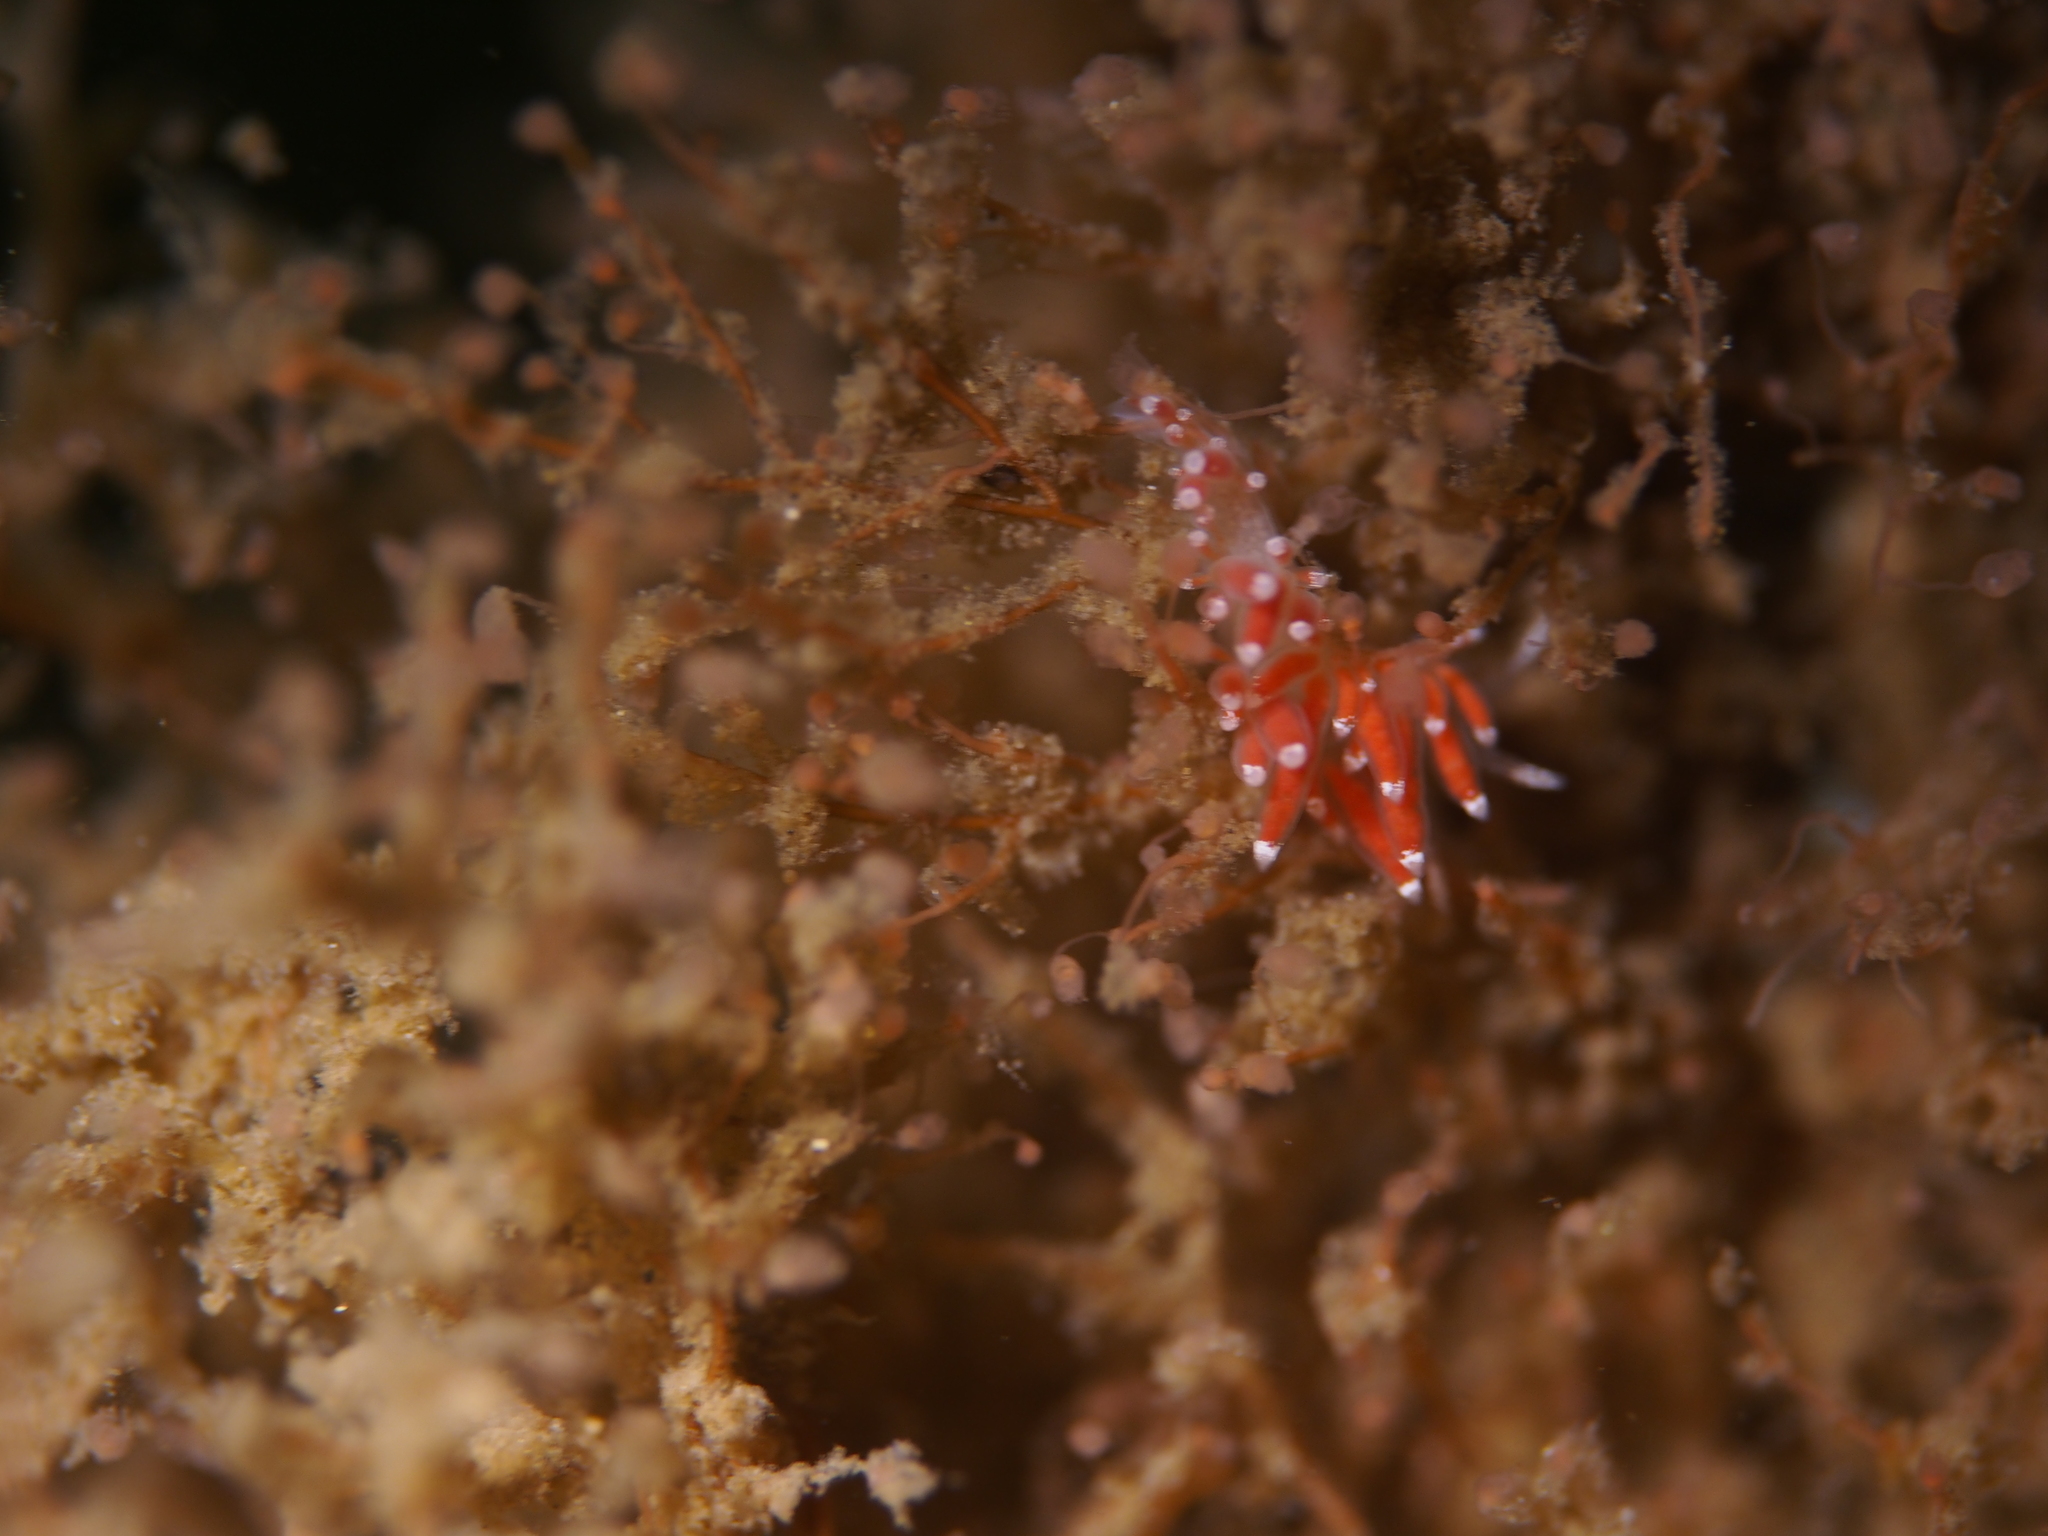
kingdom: Animalia
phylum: Mollusca
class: Gastropoda
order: Nudibranchia
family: Coryphellidae
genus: Coryphella
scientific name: Coryphella gracilis
